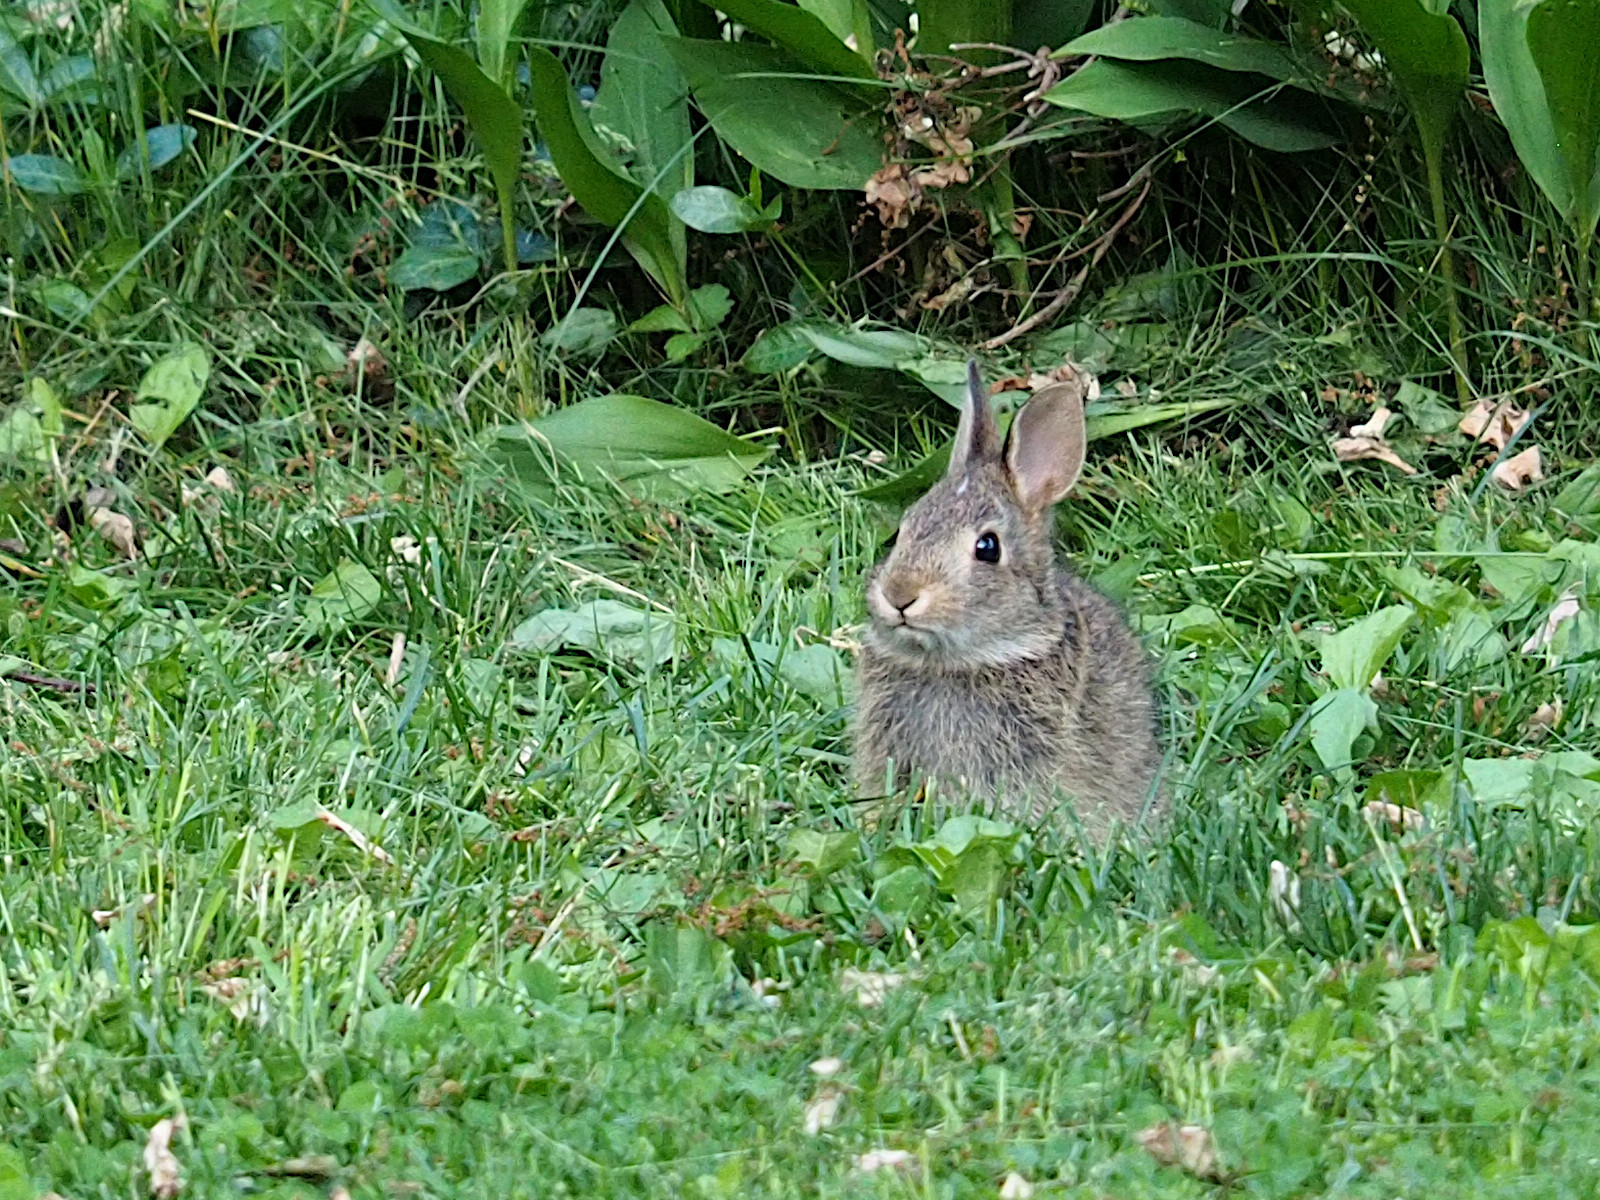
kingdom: Animalia
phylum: Chordata
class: Mammalia
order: Lagomorpha
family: Leporidae
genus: Sylvilagus
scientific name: Sylvilagus floridanus
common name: Eastern cottontail
